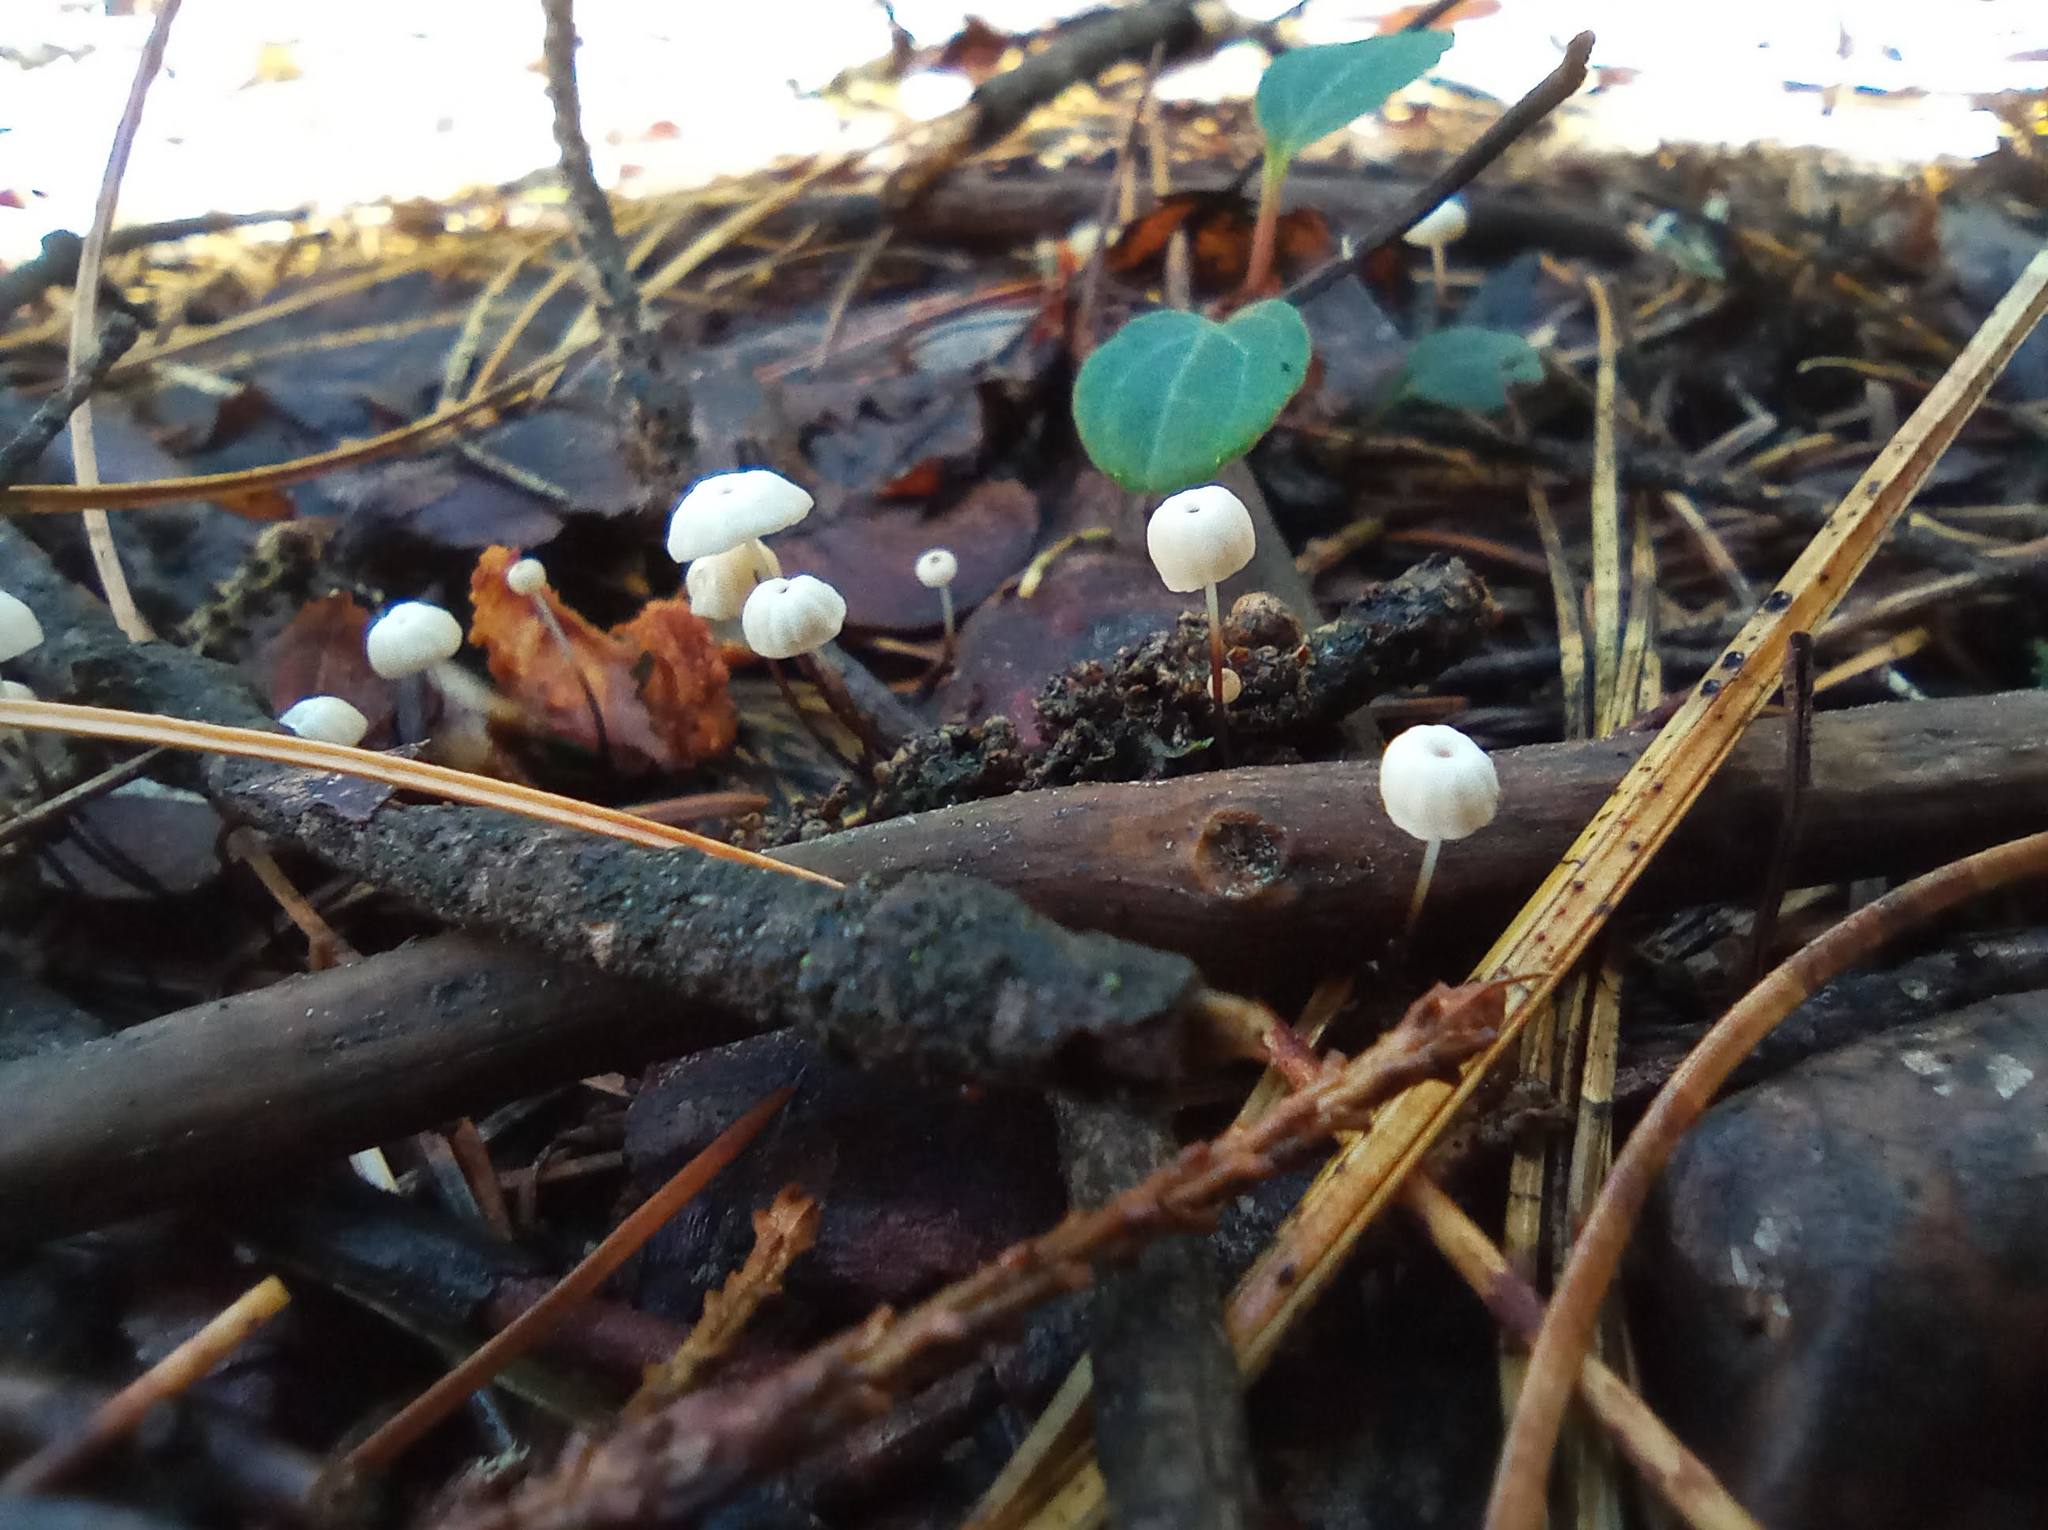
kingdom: Fungi
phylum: Basidiomycota
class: Agaricomycetes
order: Agaricales
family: Marasmiaceae
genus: Marasmius
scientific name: Marasmius rotula
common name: Collared parachute
